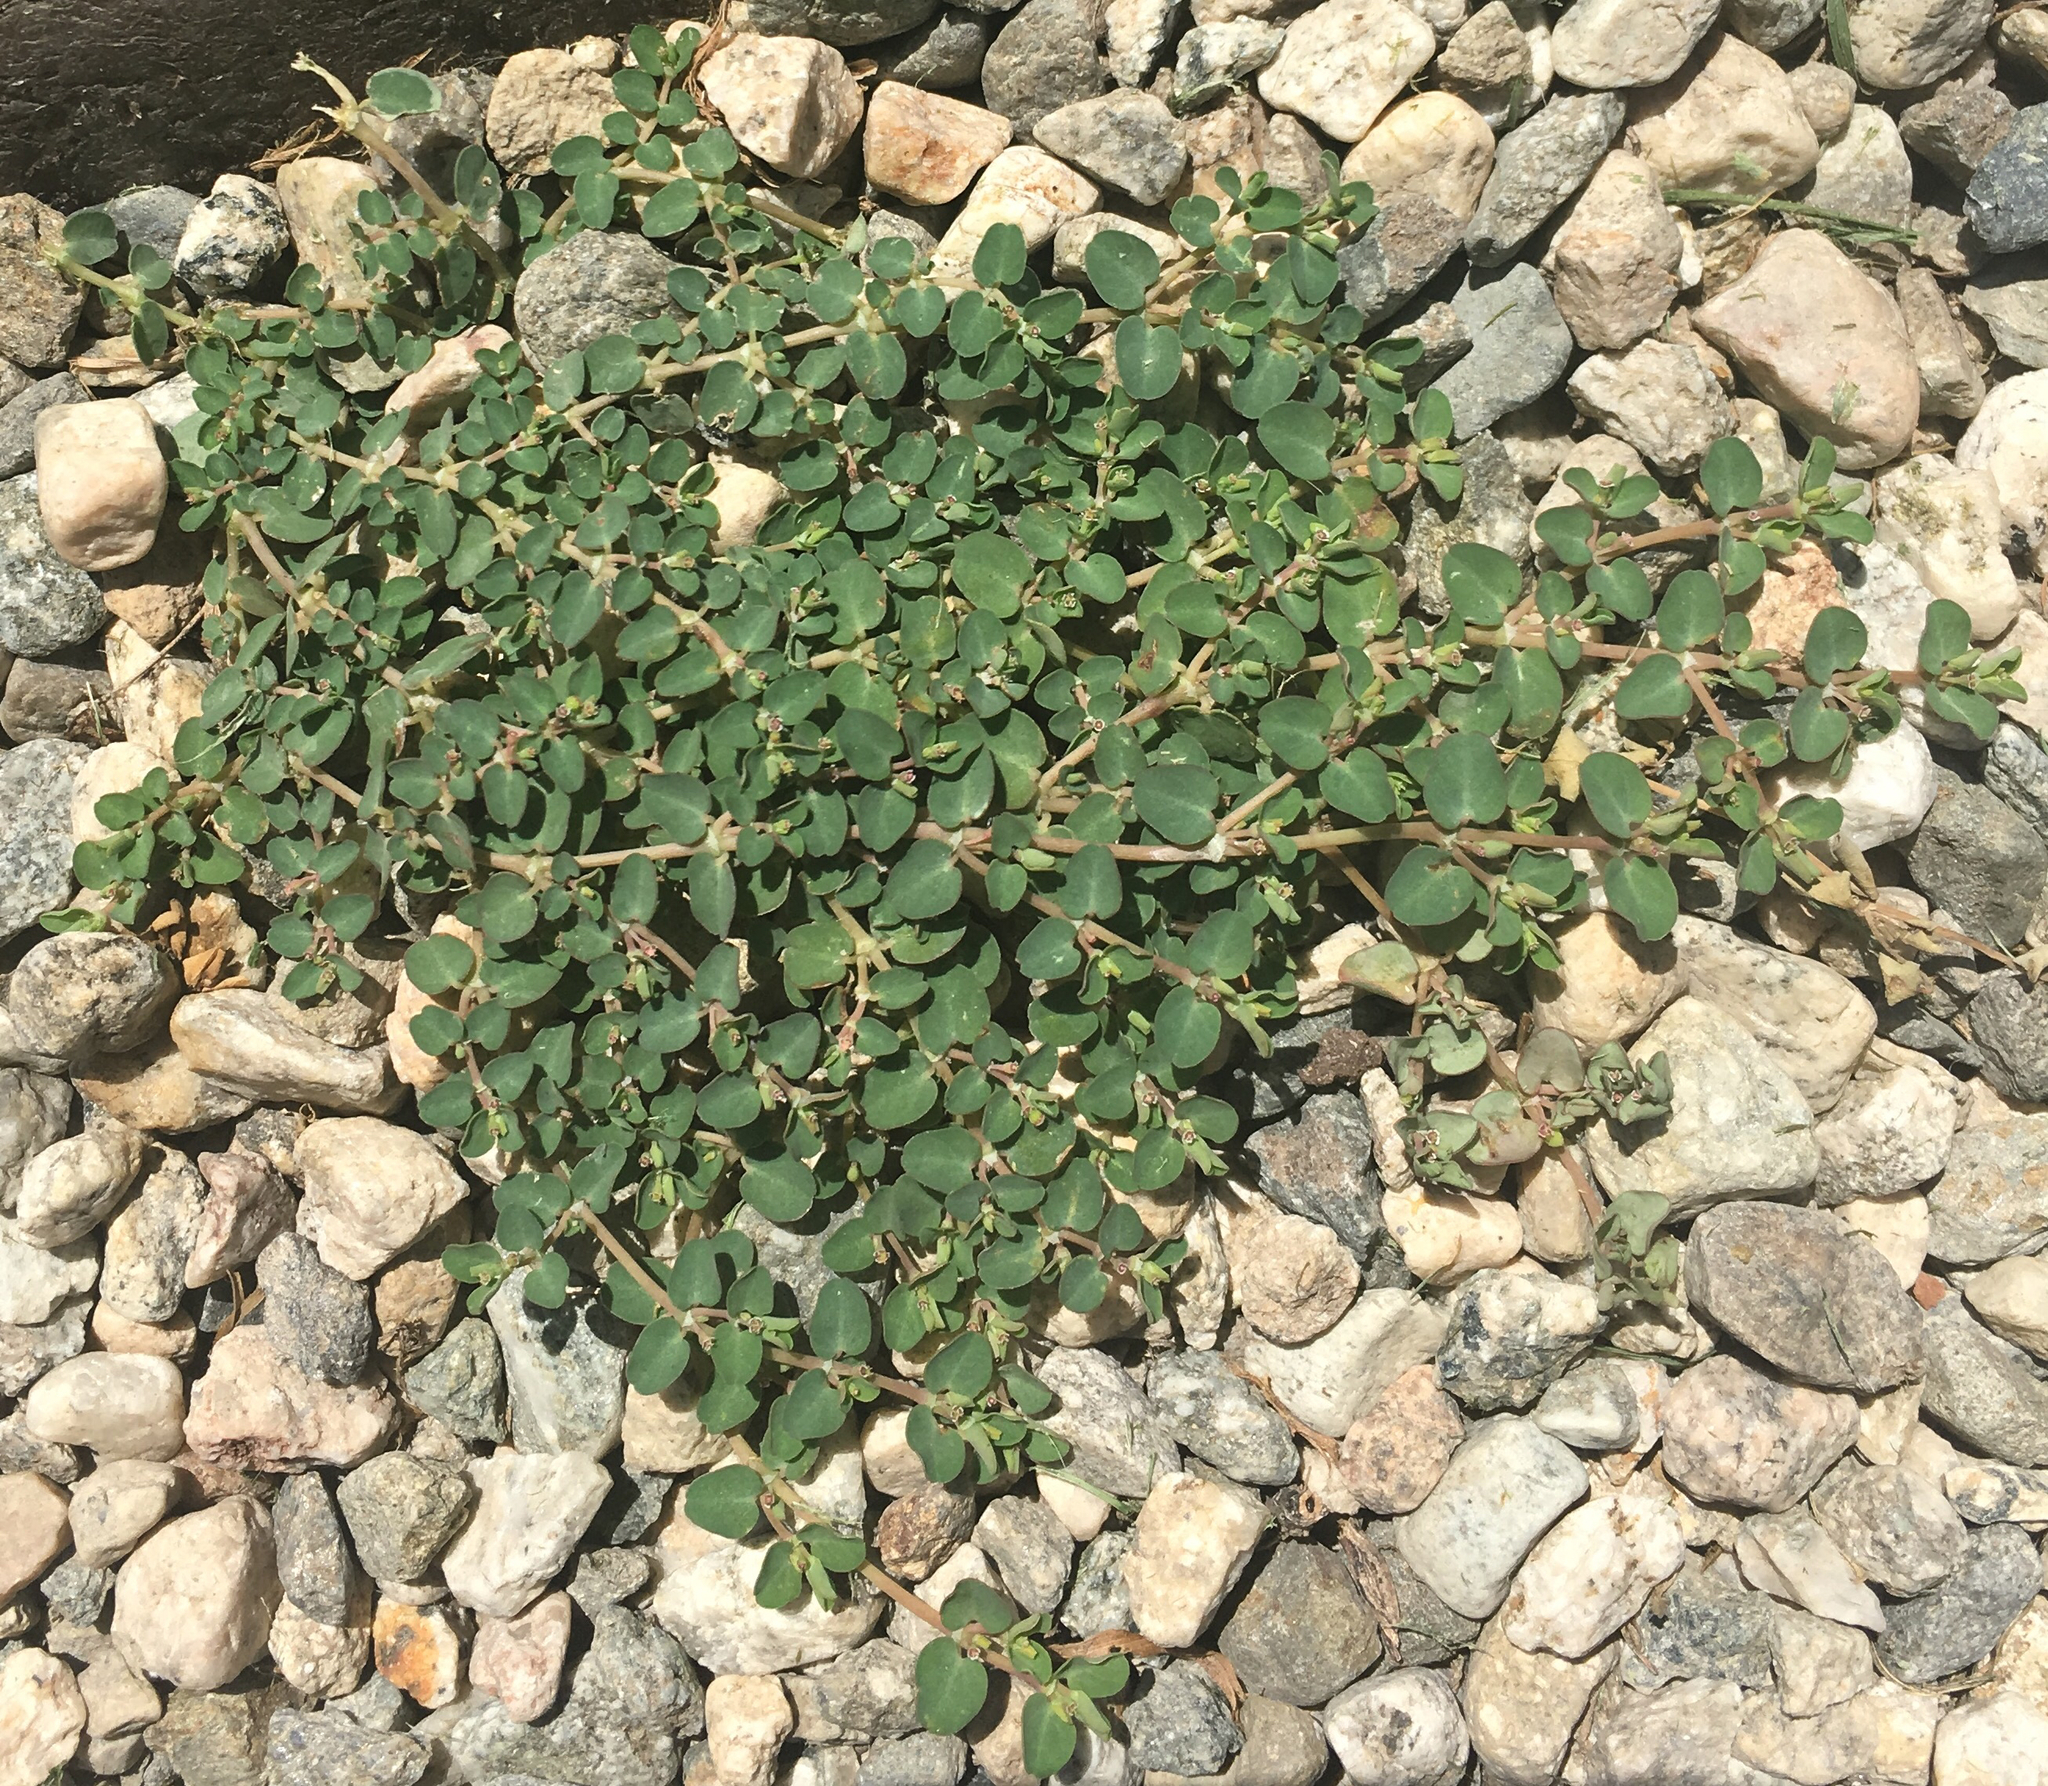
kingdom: Plantae
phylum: Tracheophyta
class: Magnoliopsida
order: Malpighiales
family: Euphorbiaceae
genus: Euphorbia
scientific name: Euphorbia serpens
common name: Matted sandmat
